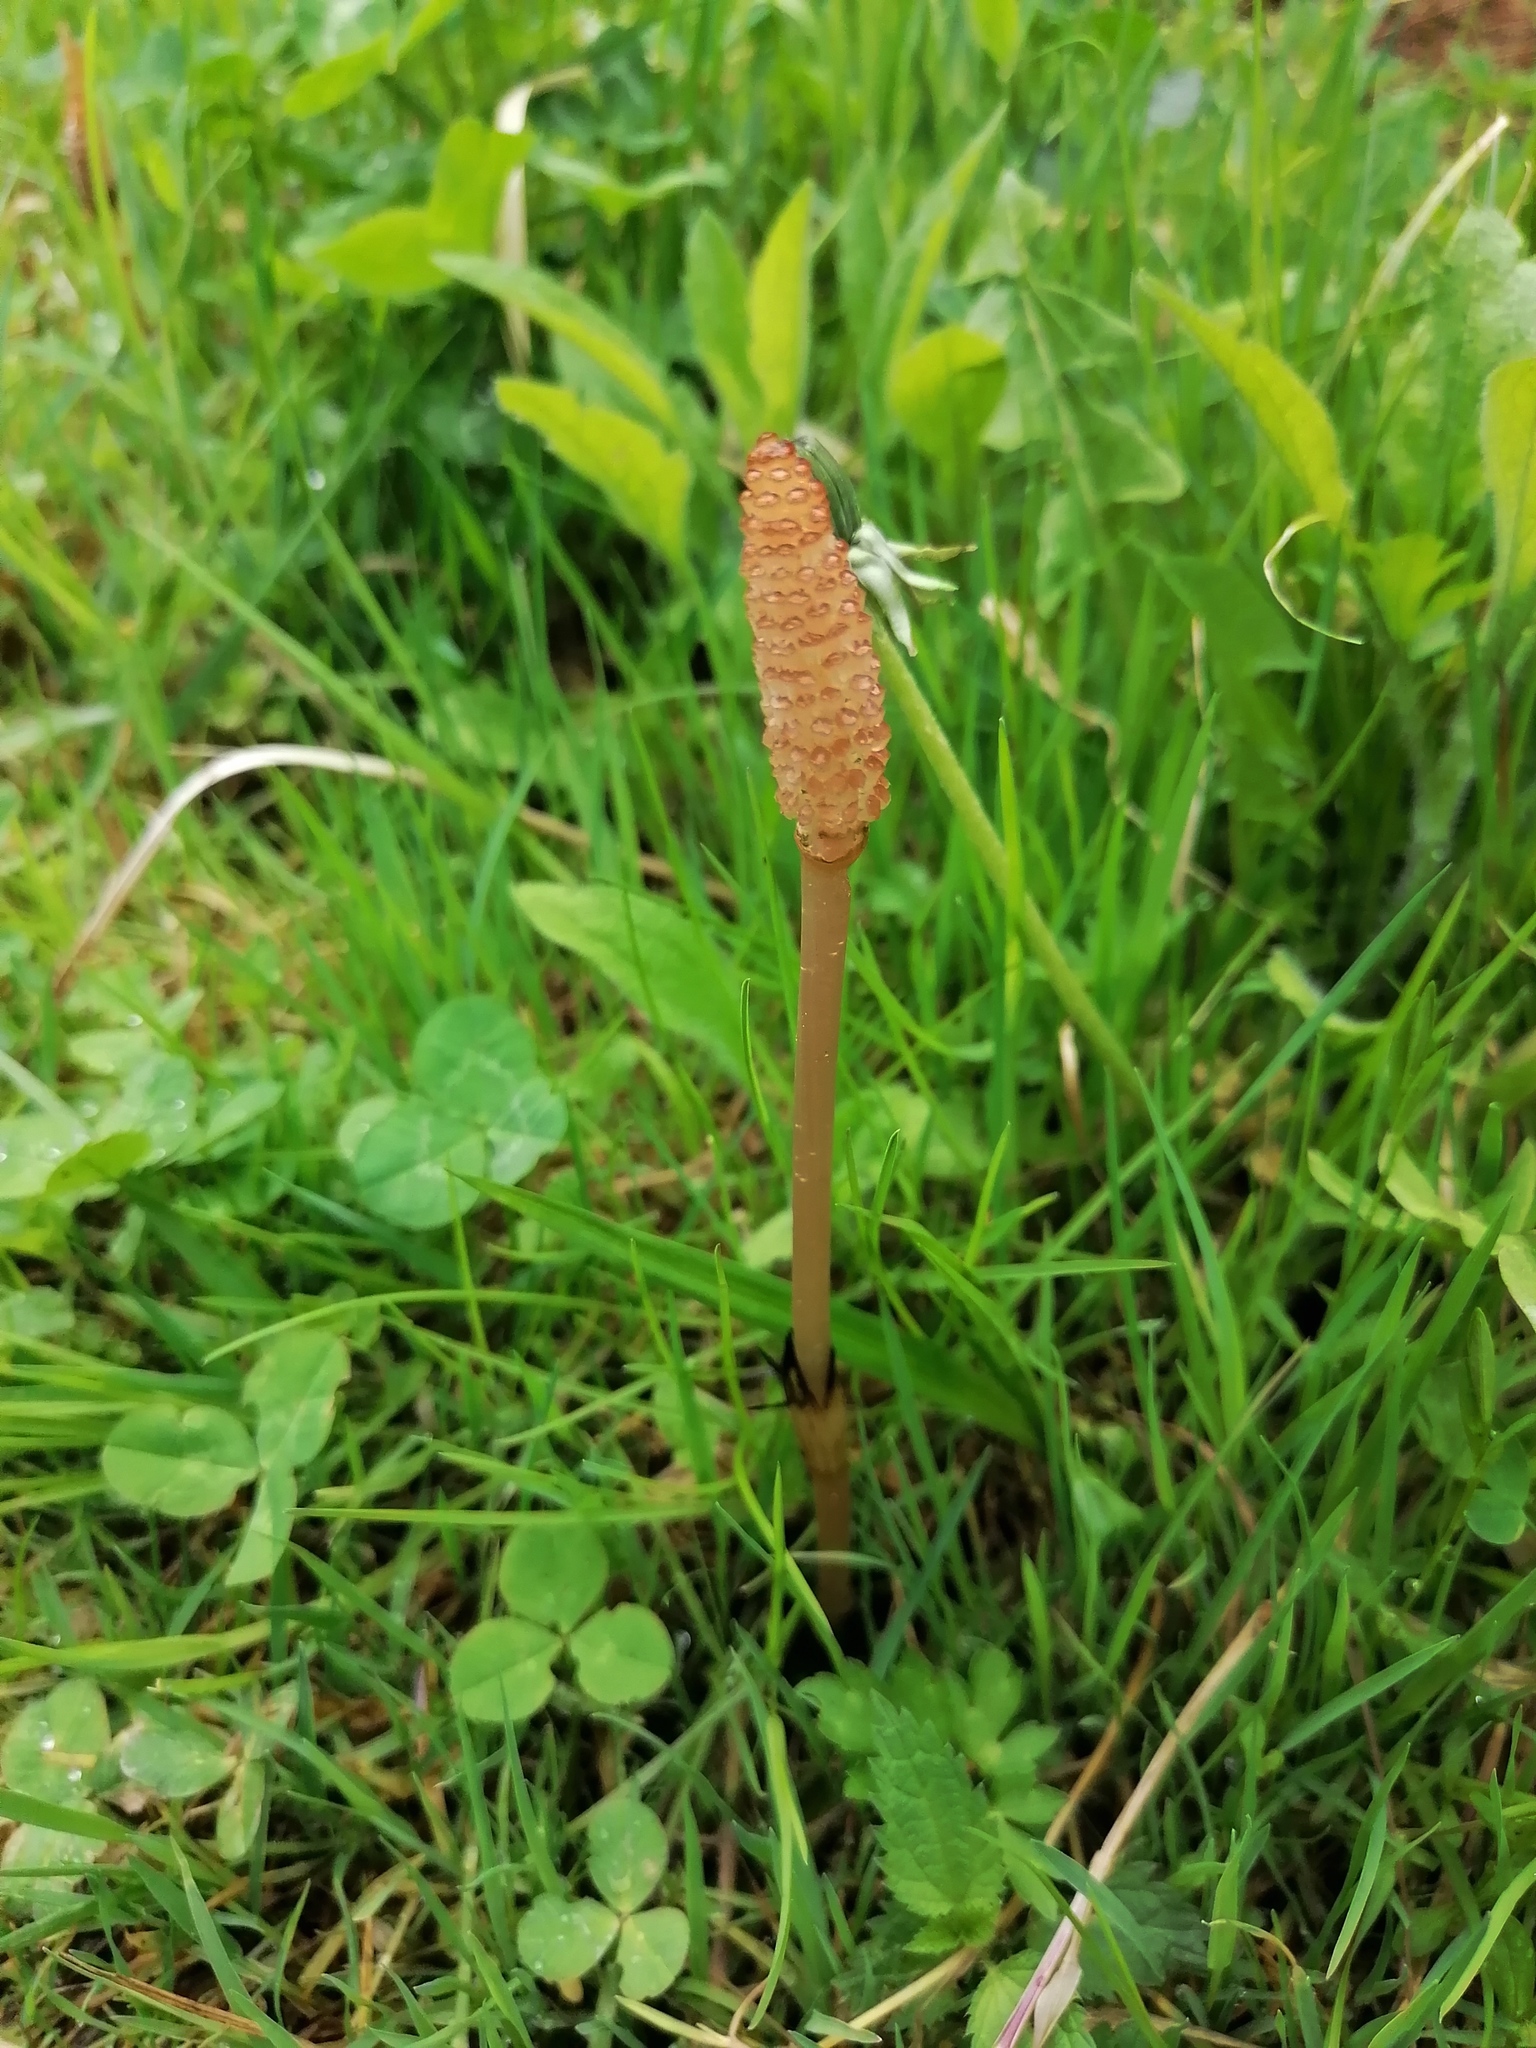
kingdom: Plantae
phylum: Tracheophyta
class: Polypodiopsida
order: Equisetales
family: Equisetaceae
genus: Equisetum
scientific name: Equisetum arvense
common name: Field horsetail
